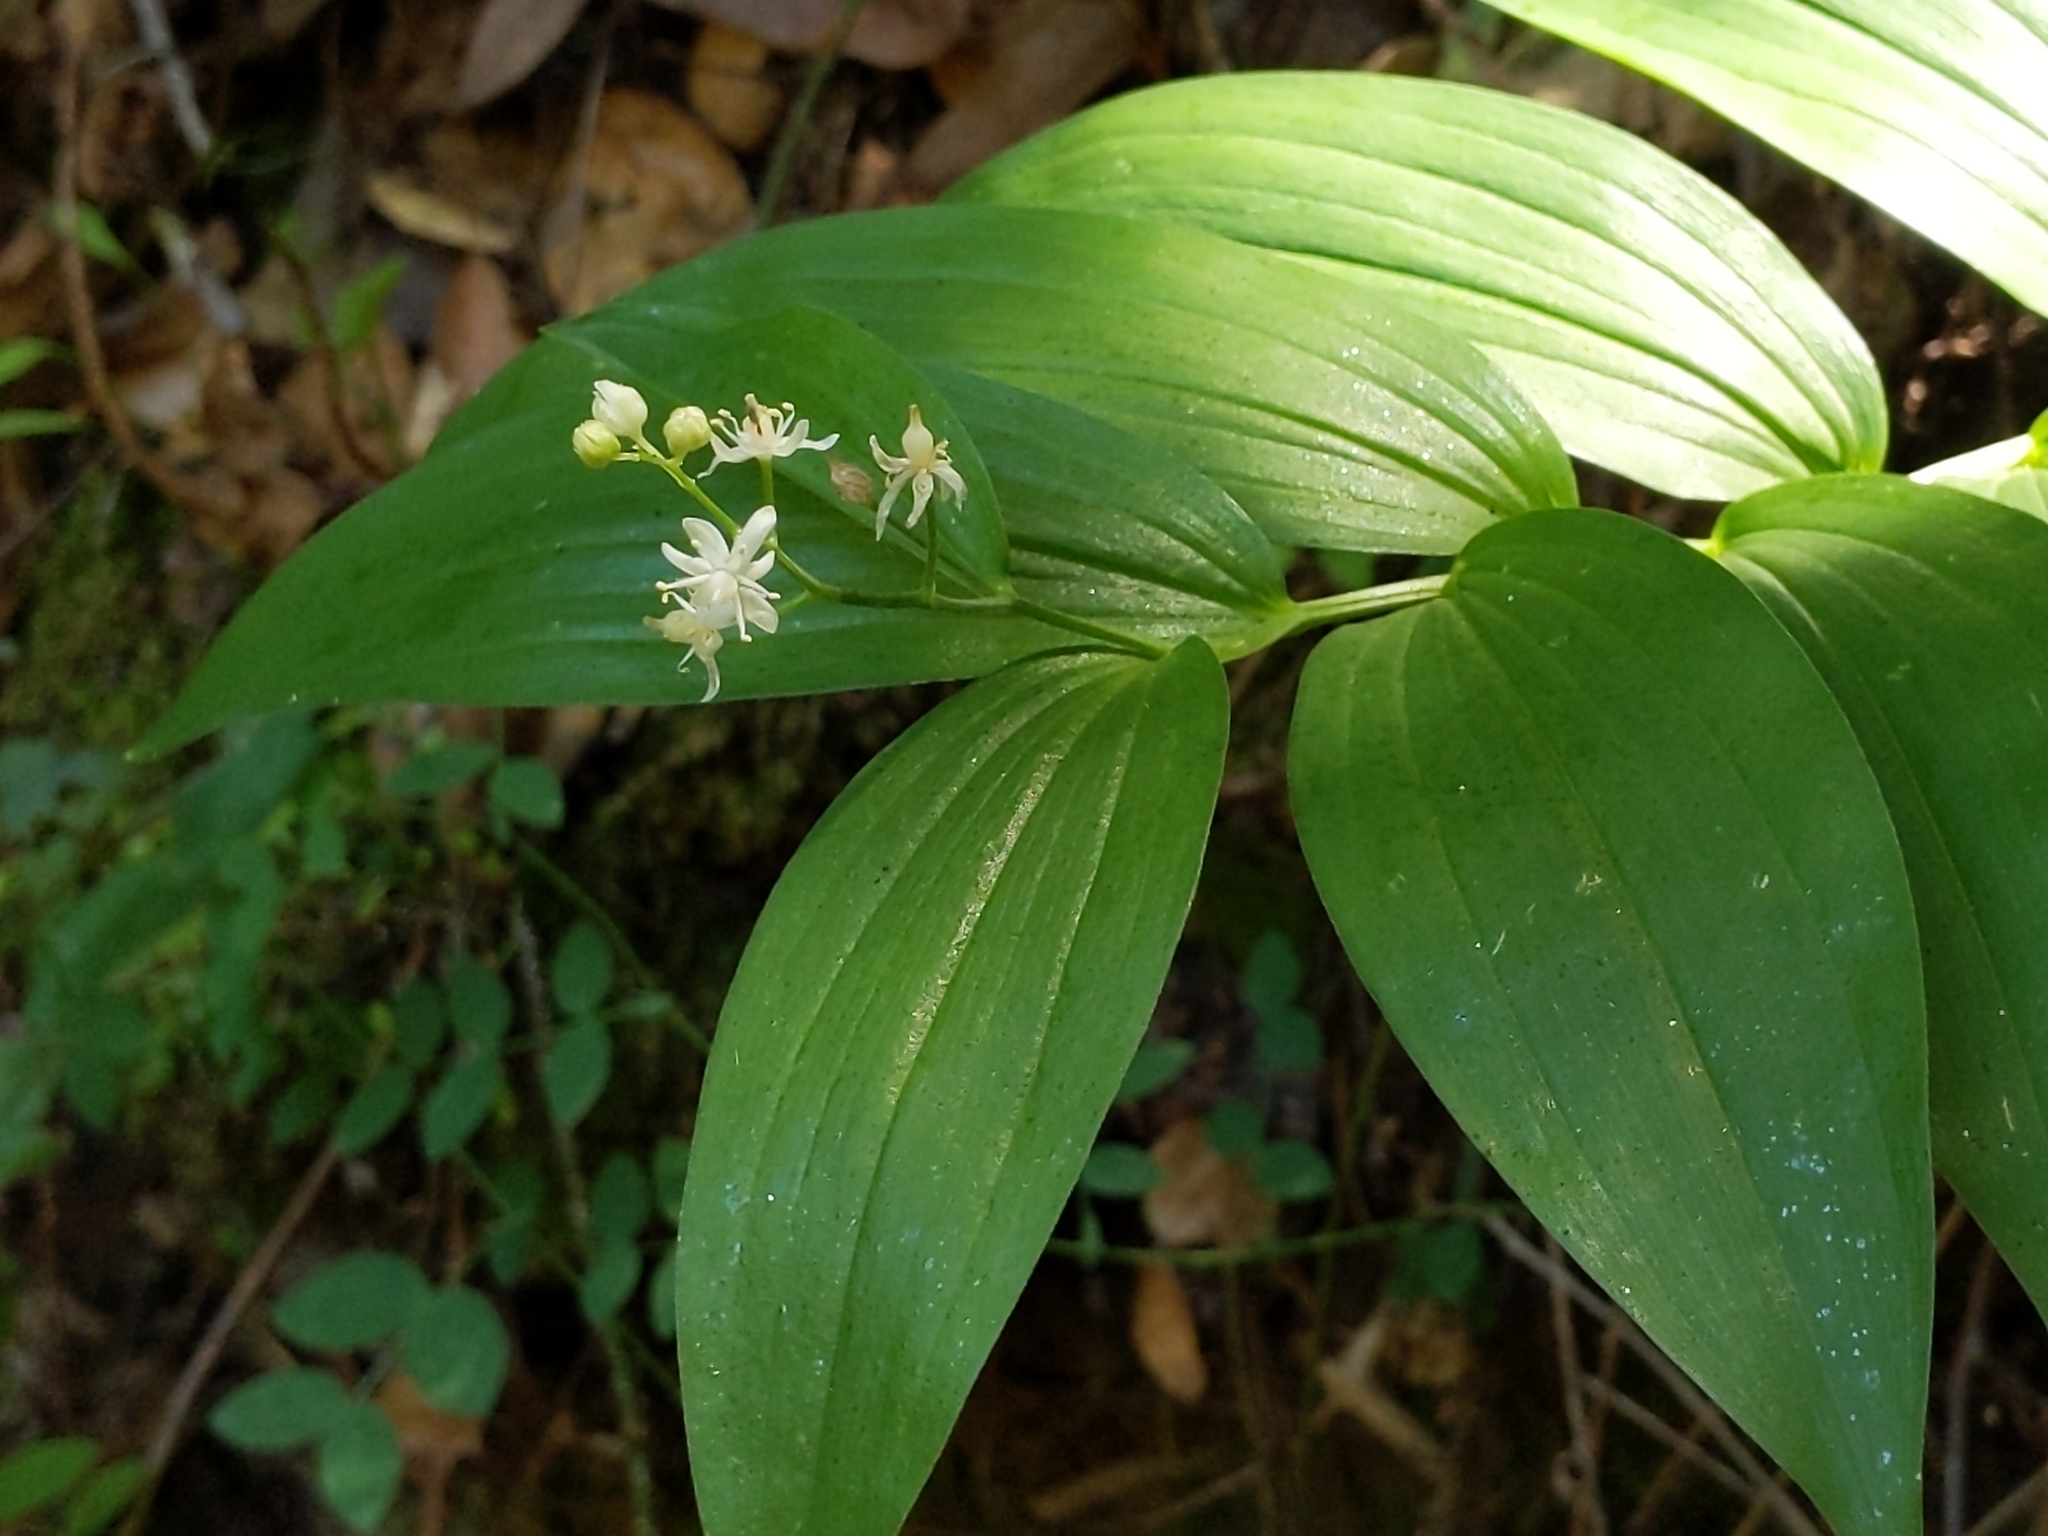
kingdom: Plantae
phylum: Tracheophyta
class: Liliopsida
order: Asparagales
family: Asparagaceae
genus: Maianthemum
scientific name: Maianthemum stellatum
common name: Little false solomon's seal
